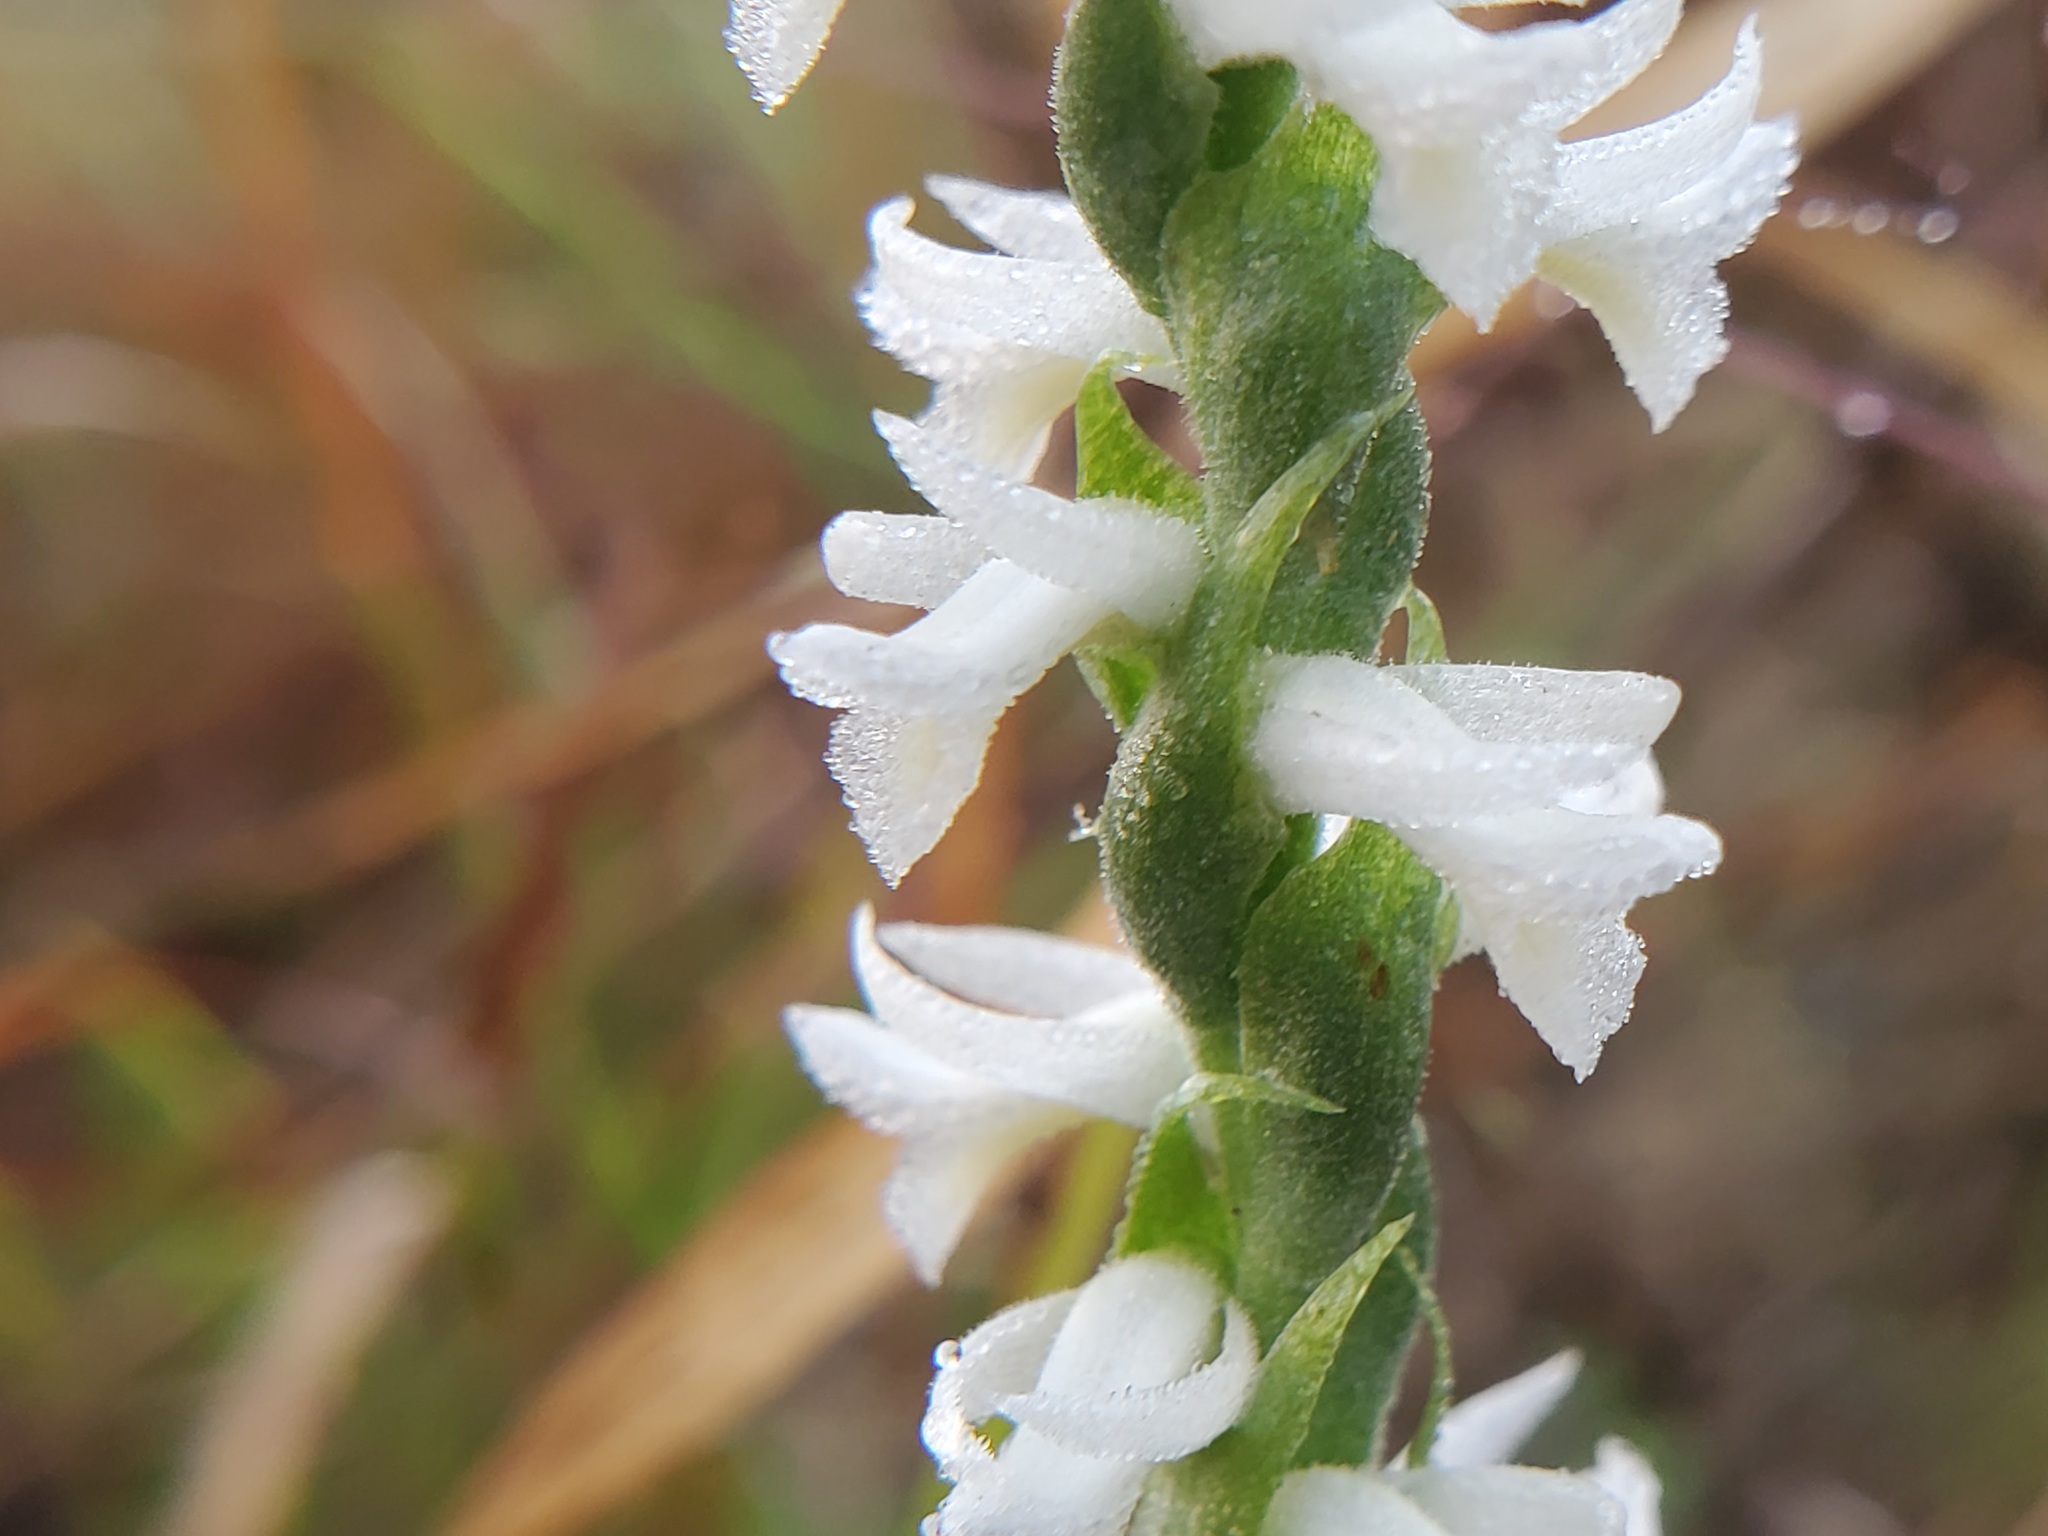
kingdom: Plantae
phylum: Tracheophyta
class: Liliopsida
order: Asparagales
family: Orchidaceae
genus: Spiranthes
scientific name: Spiranthes magnicamporum
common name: Great plains ladies'-tresses
